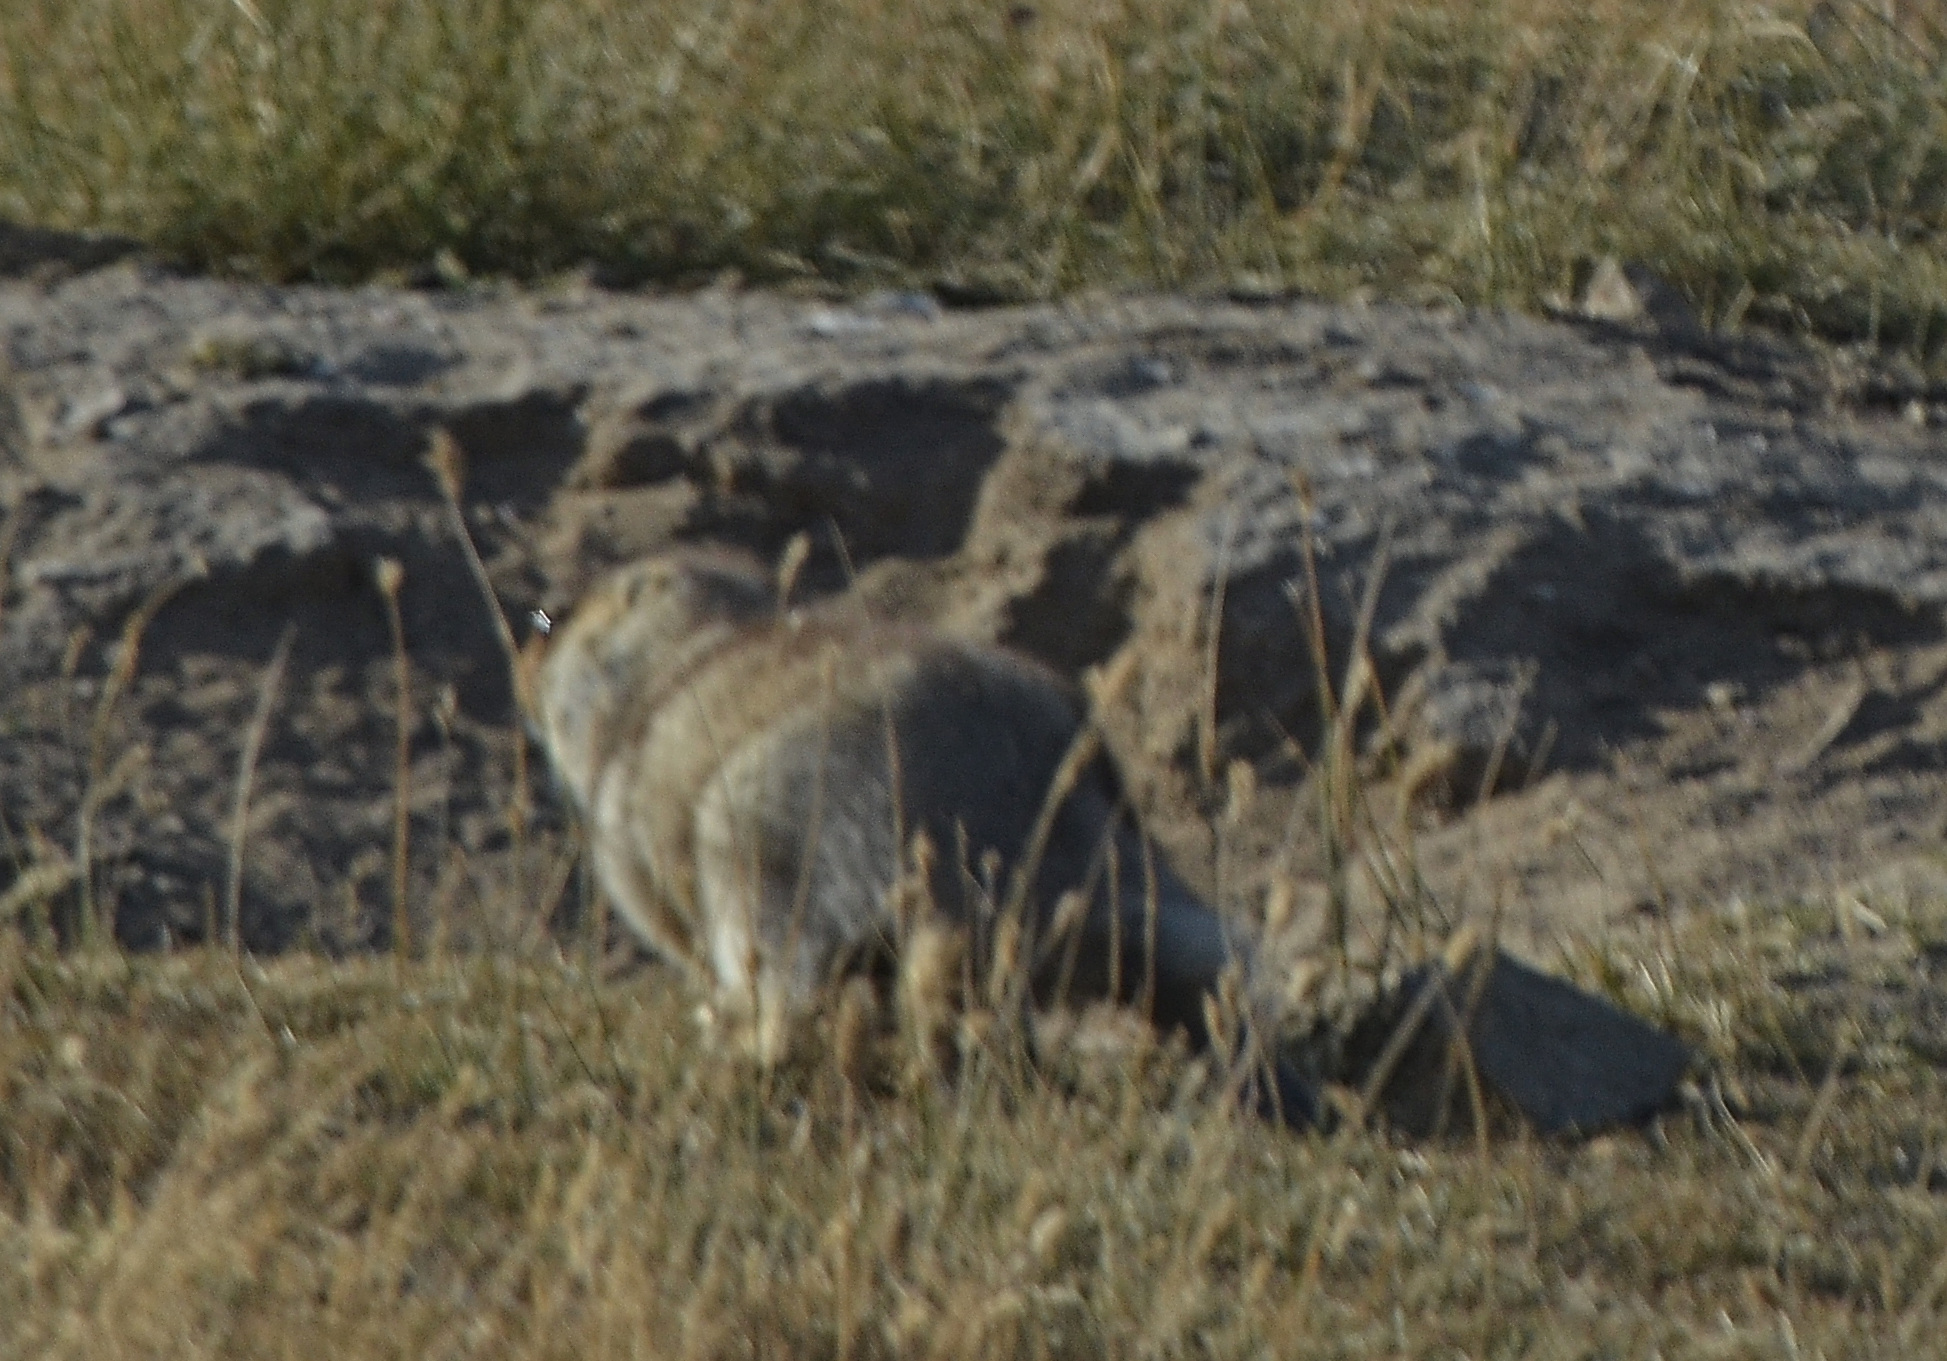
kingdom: Animalia
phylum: Chordata
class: Mammalia
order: Rodentia
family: Sciuridae
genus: Marmota
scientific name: Marmota sibirica
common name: Tarbagan marmot
